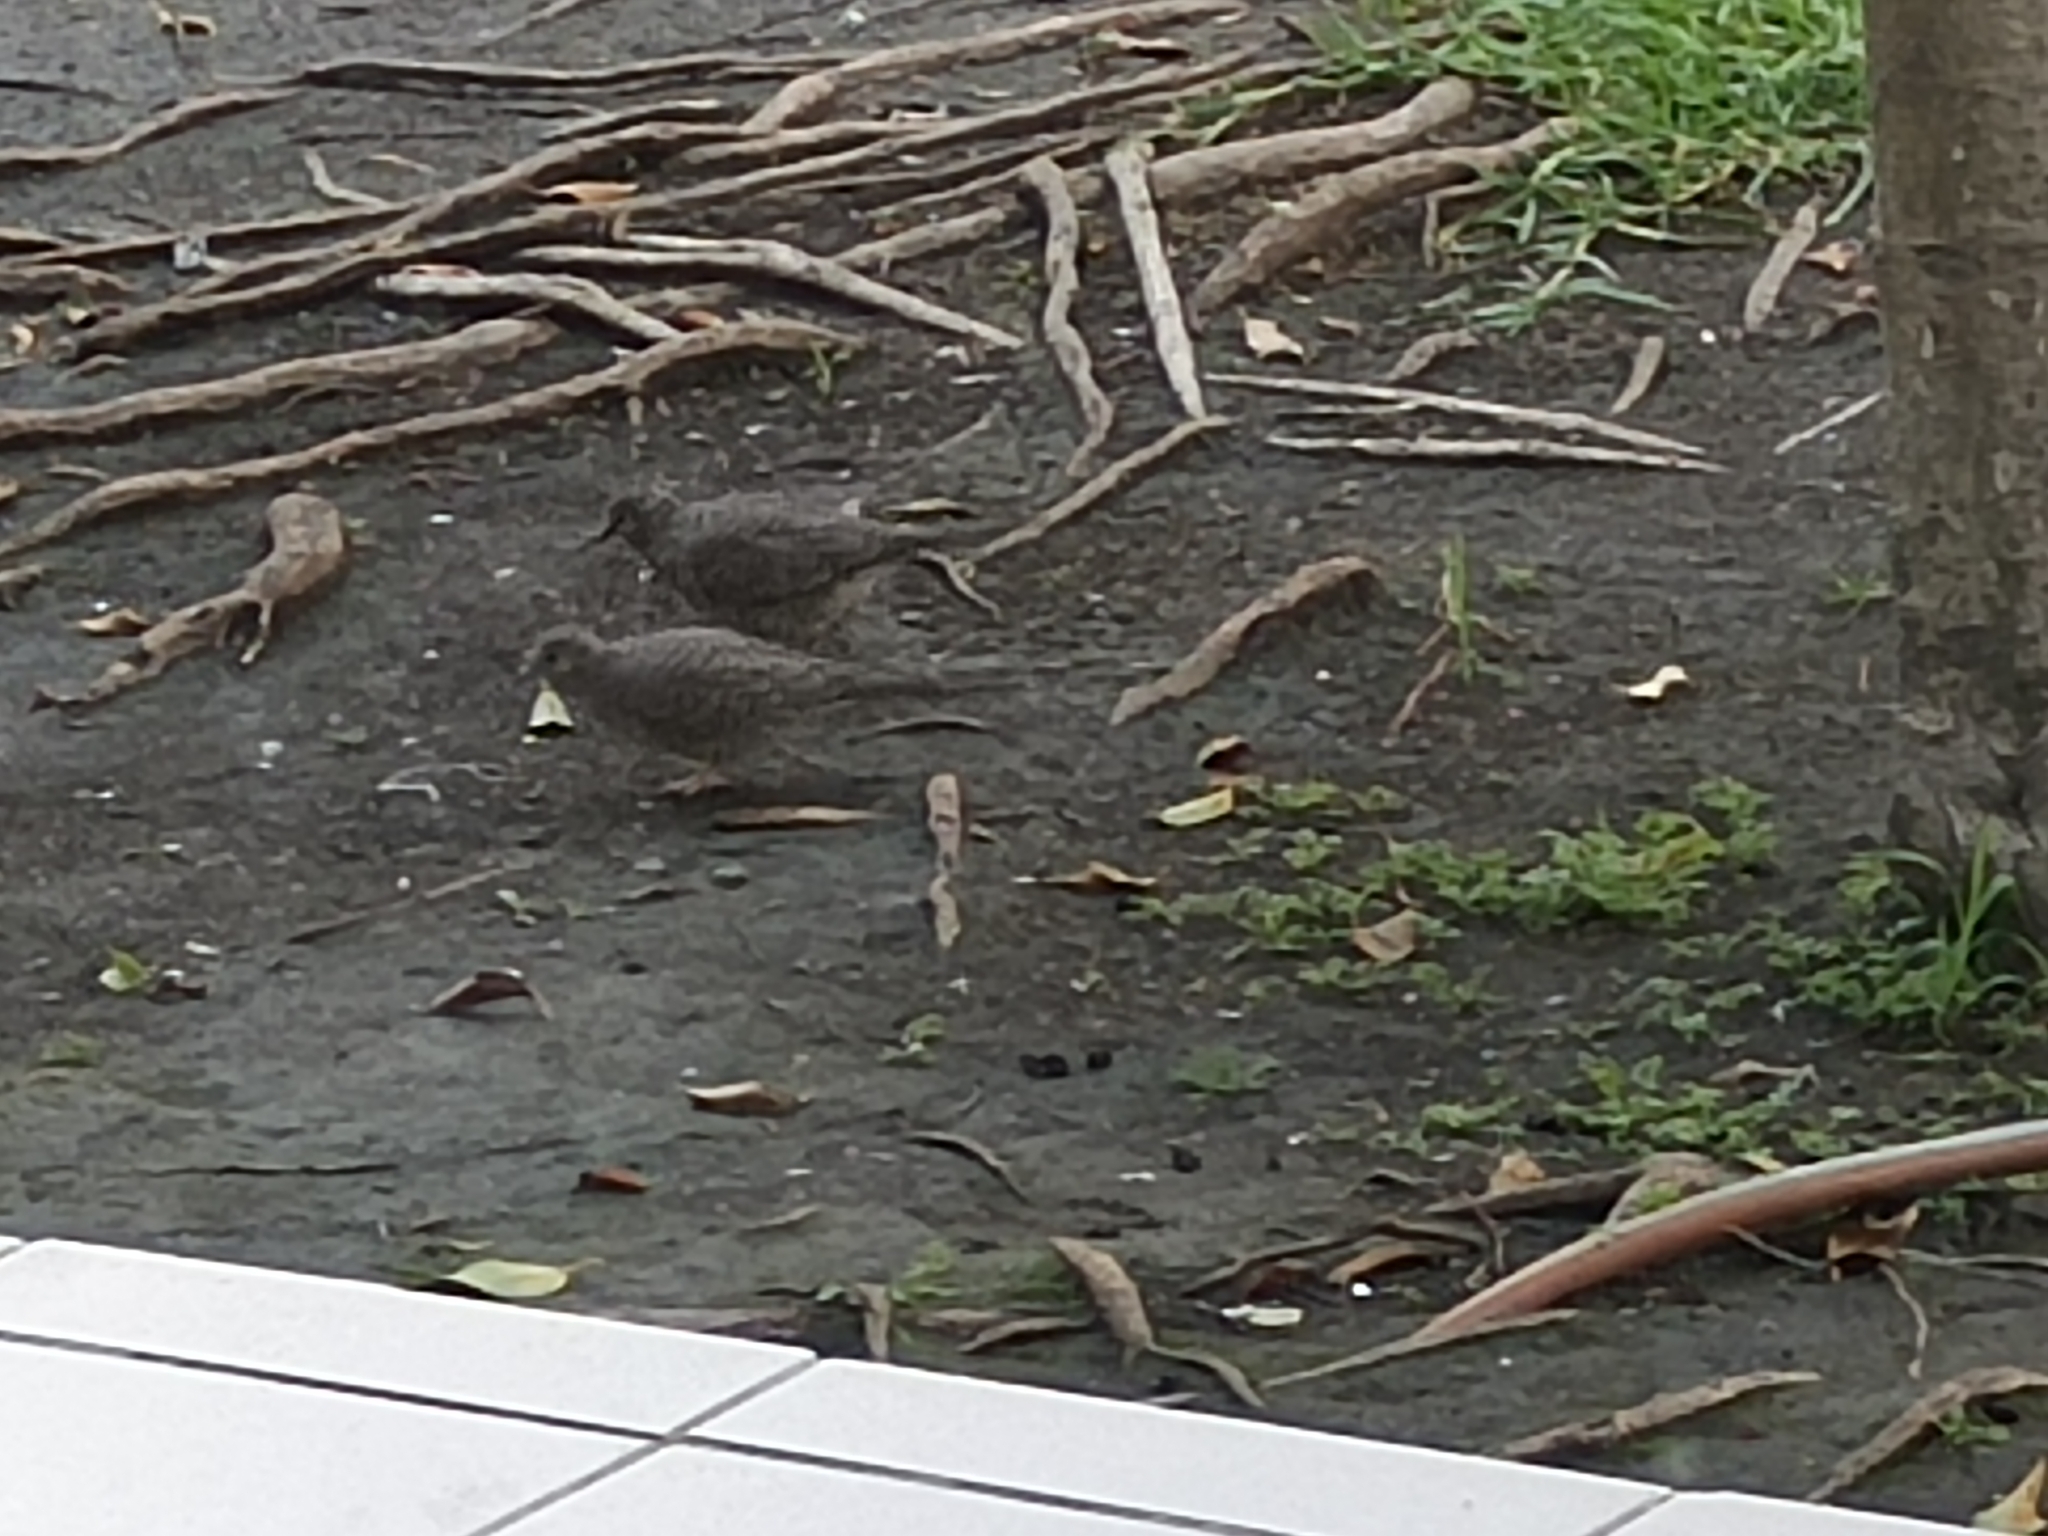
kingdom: Animalia
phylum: Chordata
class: Aves
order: Columbiformes
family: Columbidae
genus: Columbina
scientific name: Columbina inca
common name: Inca dove
